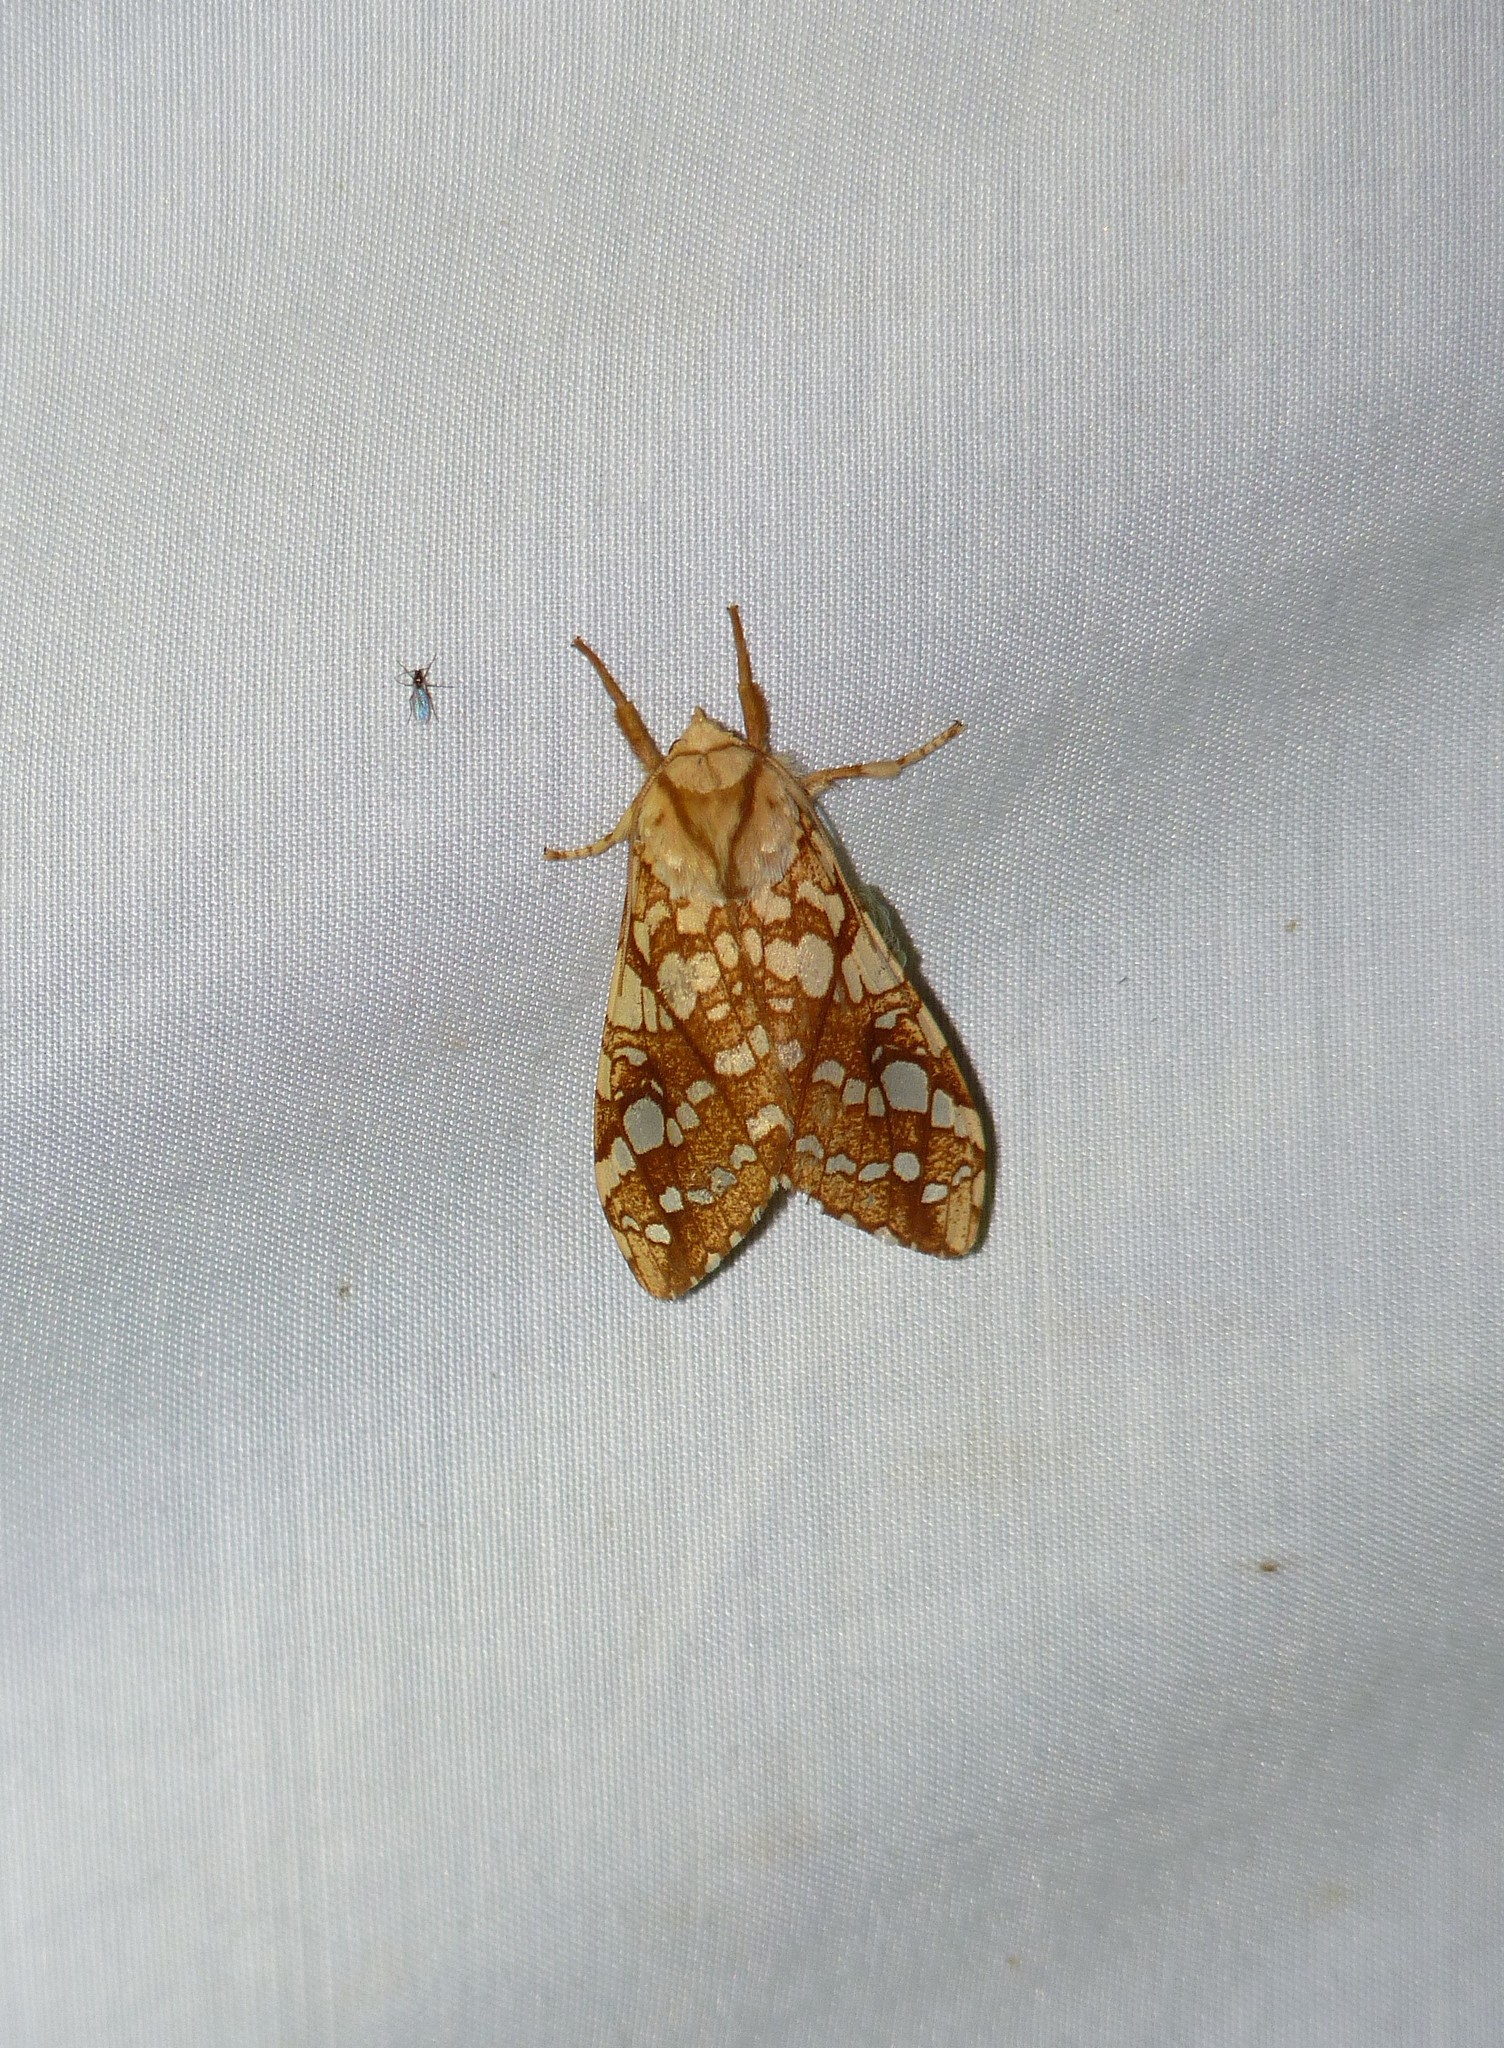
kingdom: Animalia
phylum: Arthropoda
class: Insecta
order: Lepidoptera
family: Erebidae
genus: Lophocampa
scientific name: Lophocampa caryae
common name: Hickory tussock moth
